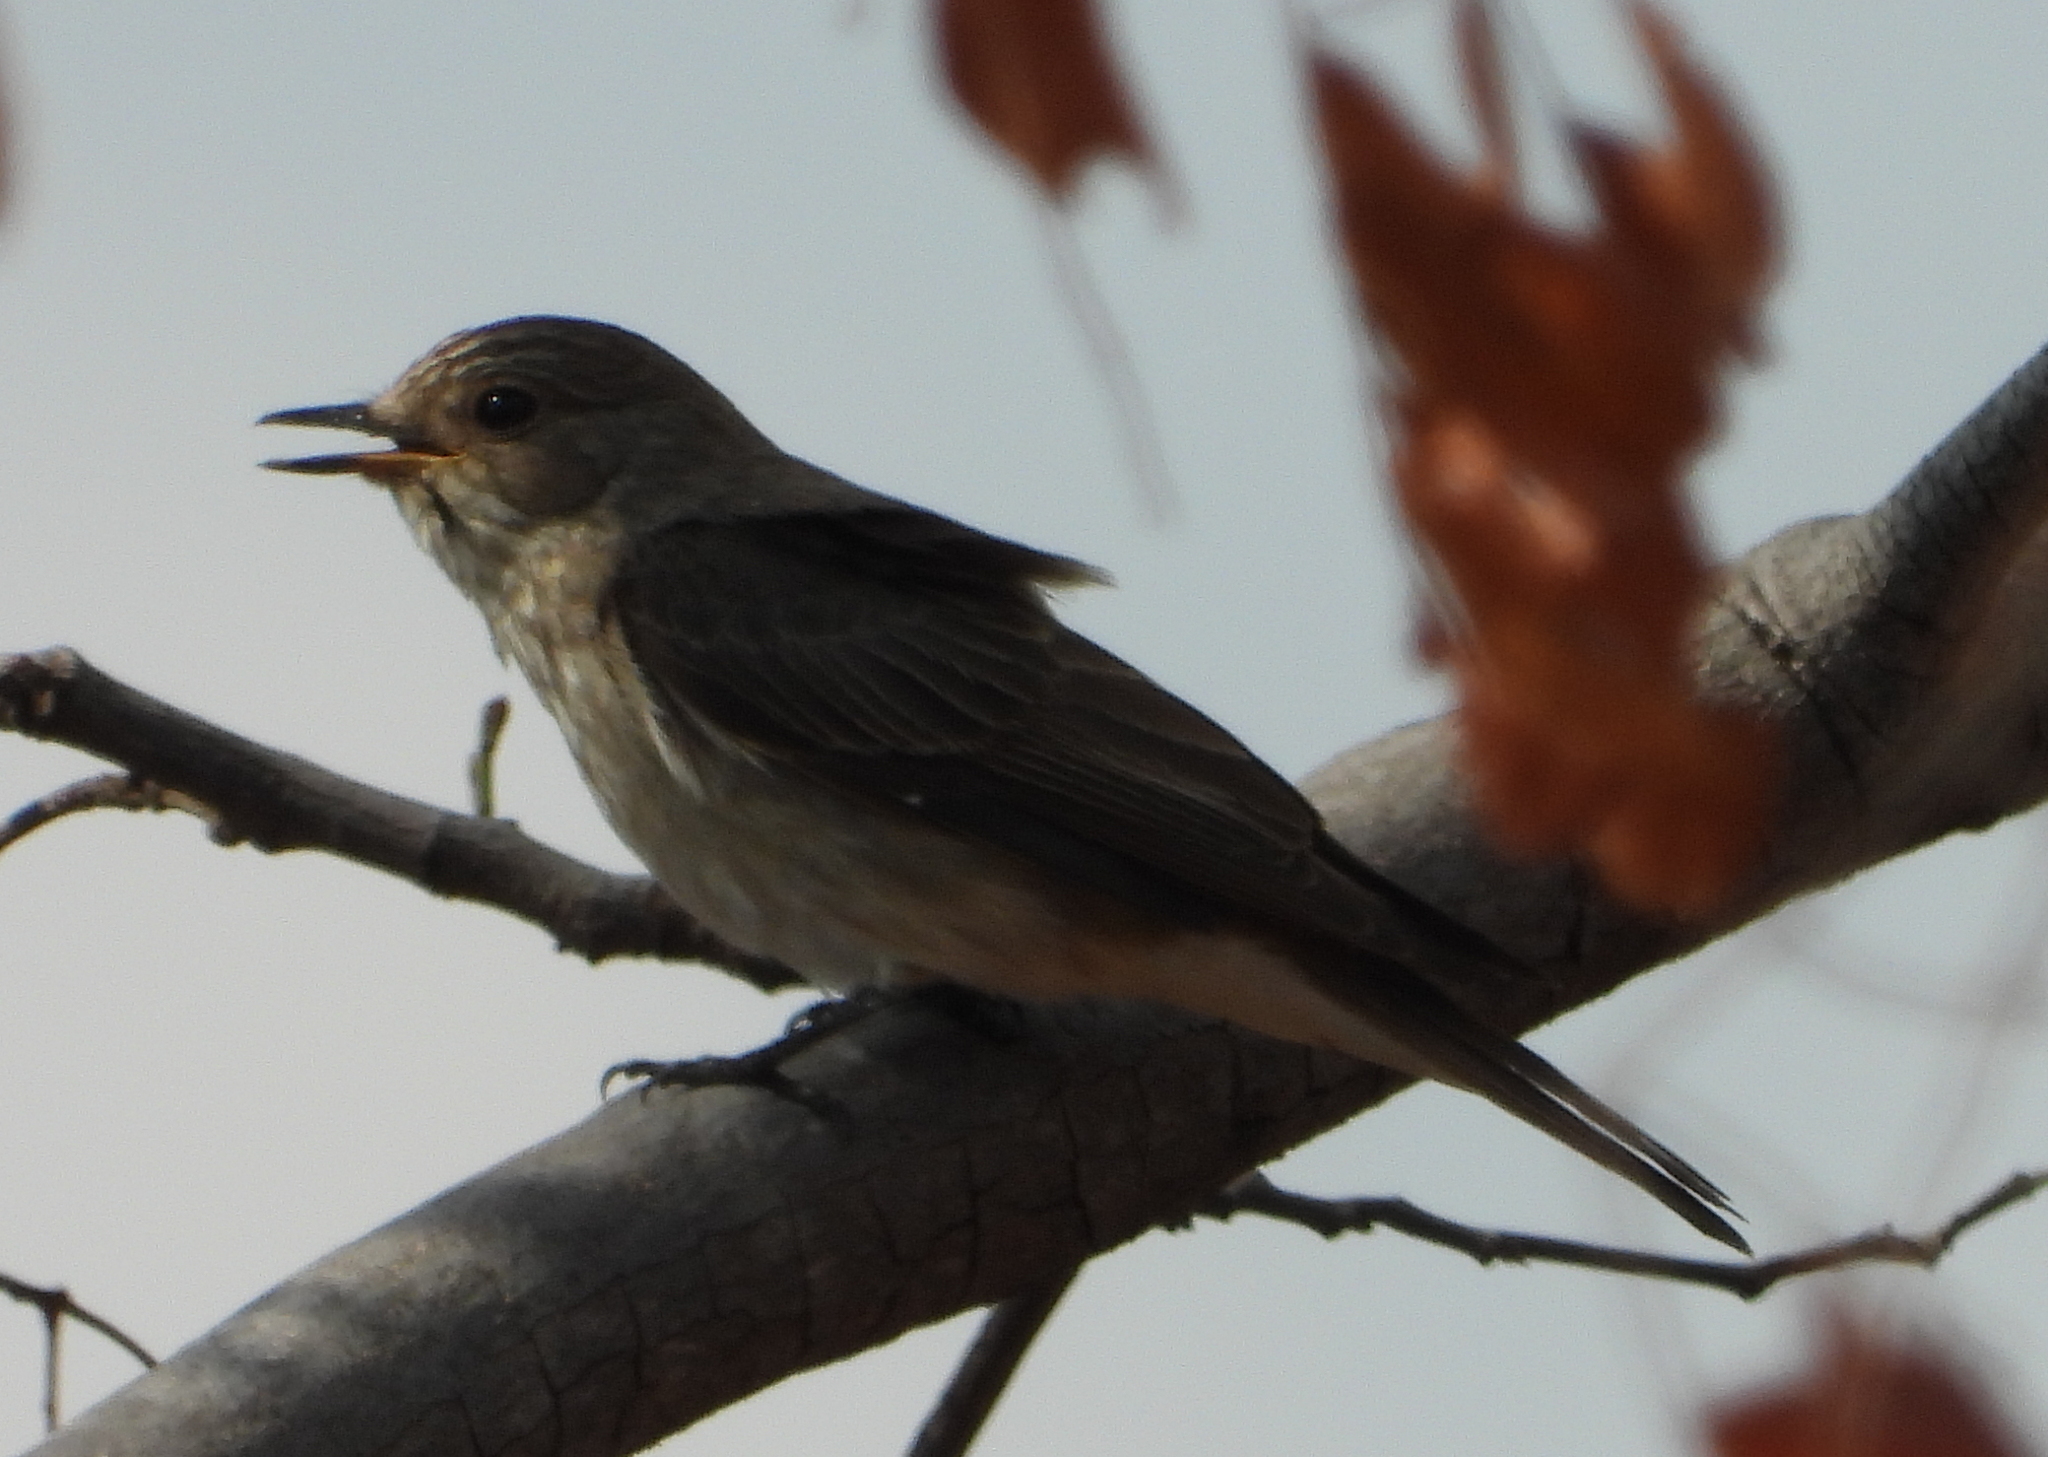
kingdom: Animalia
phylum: Chordata
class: Aves
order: Passeriformes
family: Muscicapidae
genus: Muscicapa
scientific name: Muscicapa striata
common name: Spotted flycatcher
